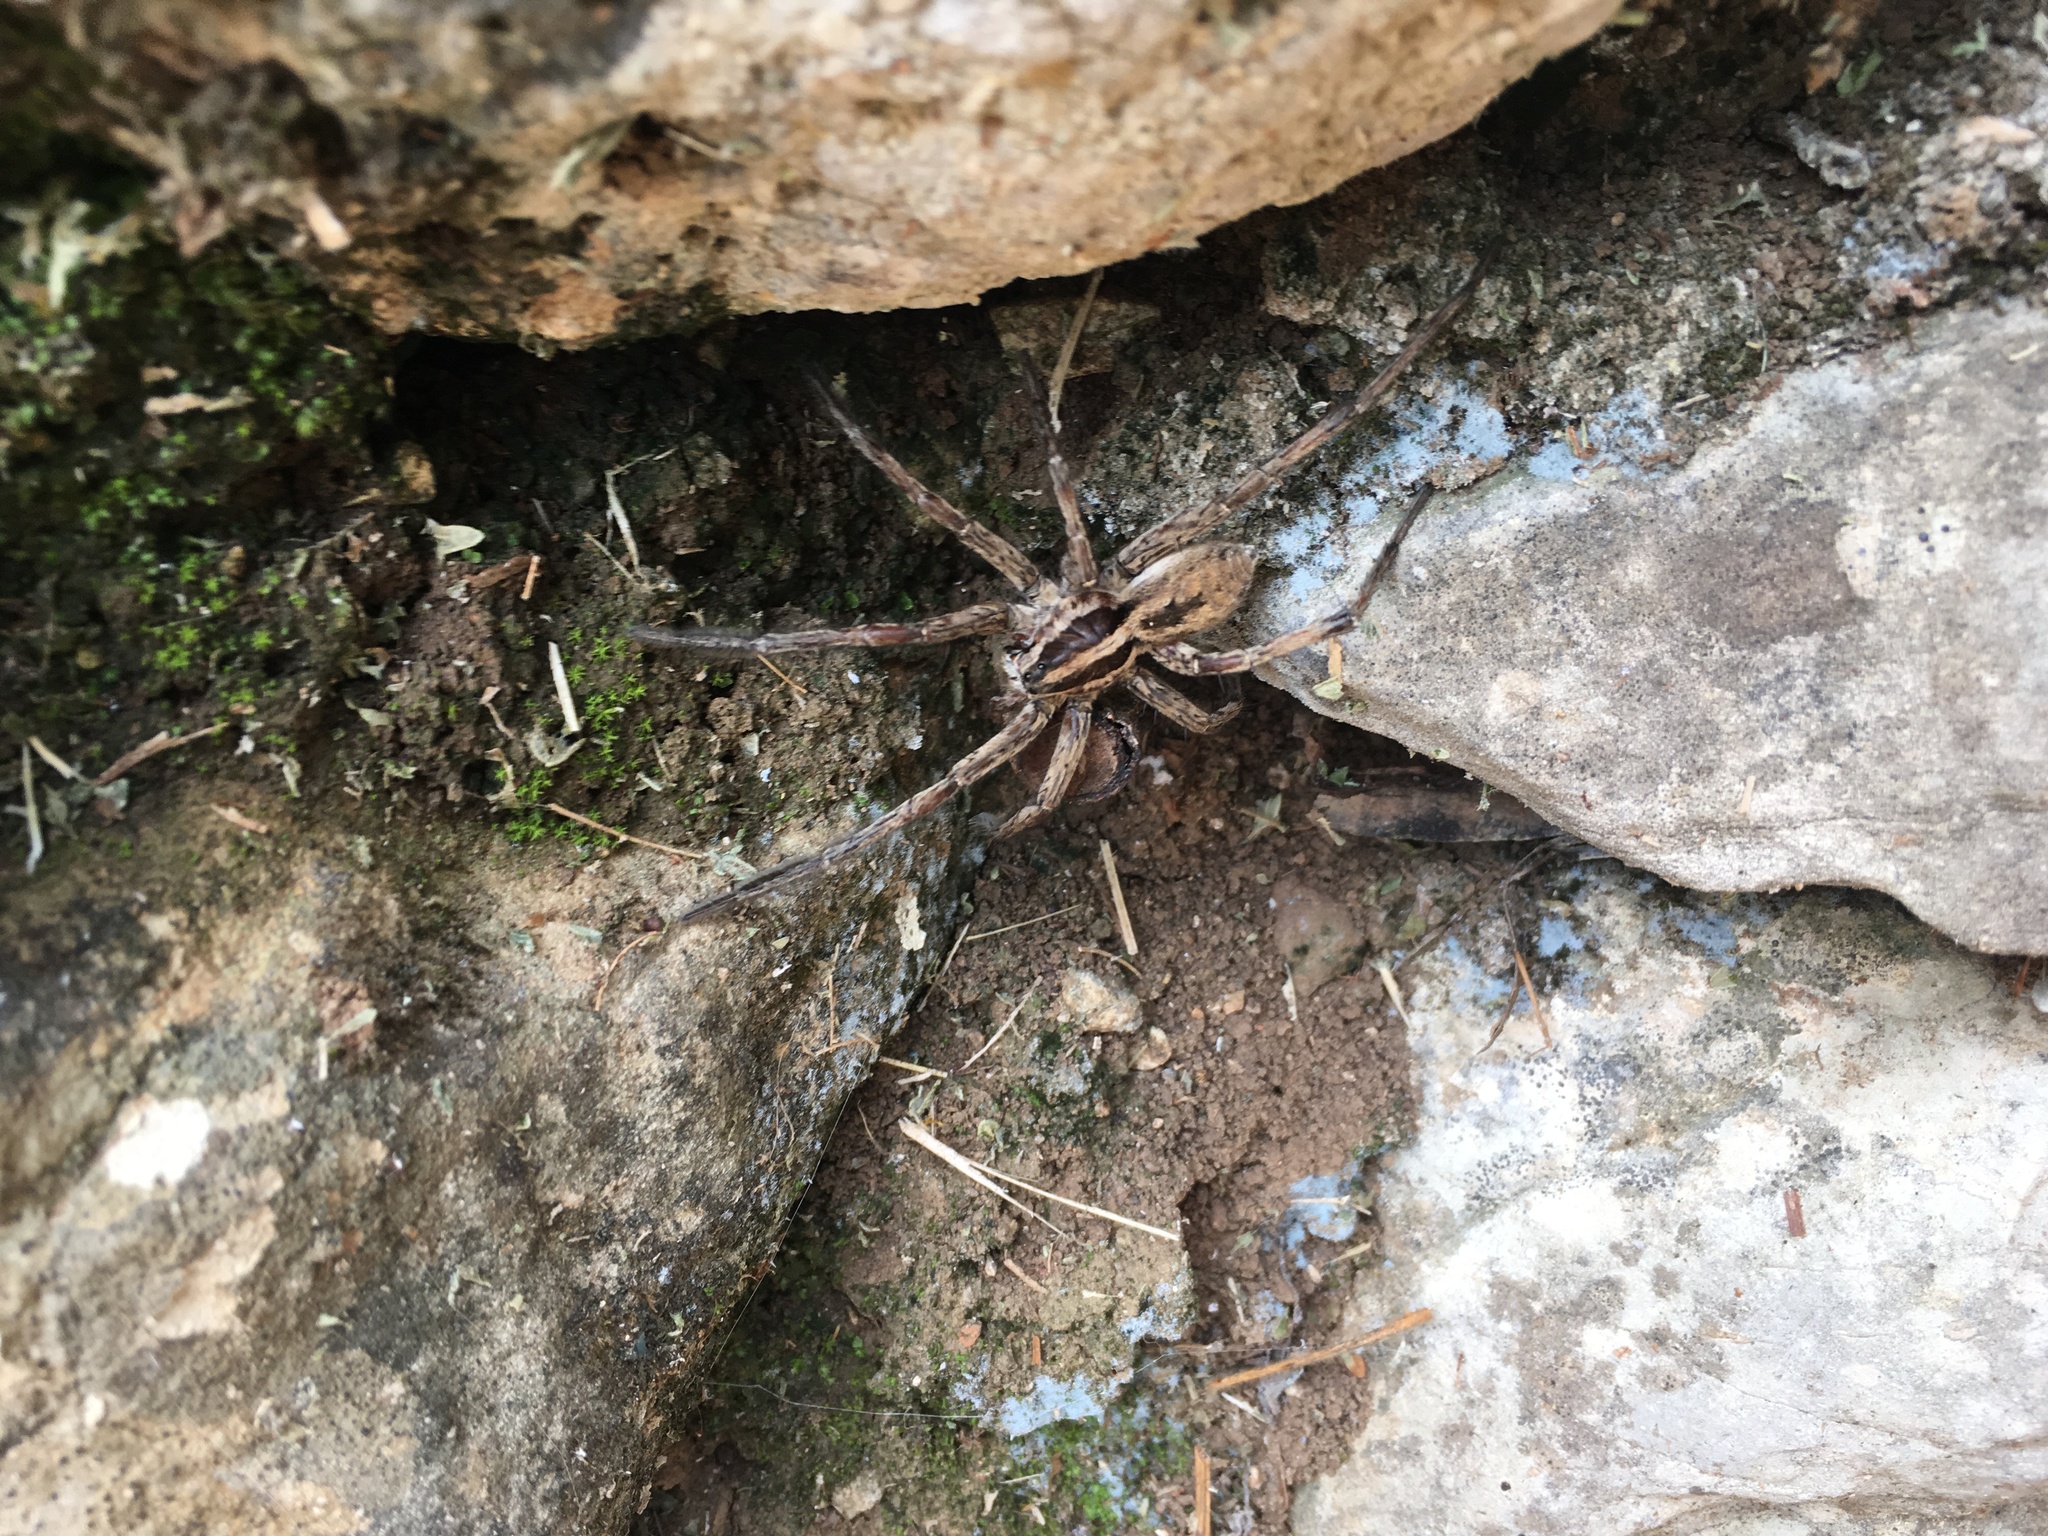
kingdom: Animalia
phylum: Arthropoda
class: Arachnida
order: Araneae
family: Lycosidae
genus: Hogna
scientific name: Hogna
